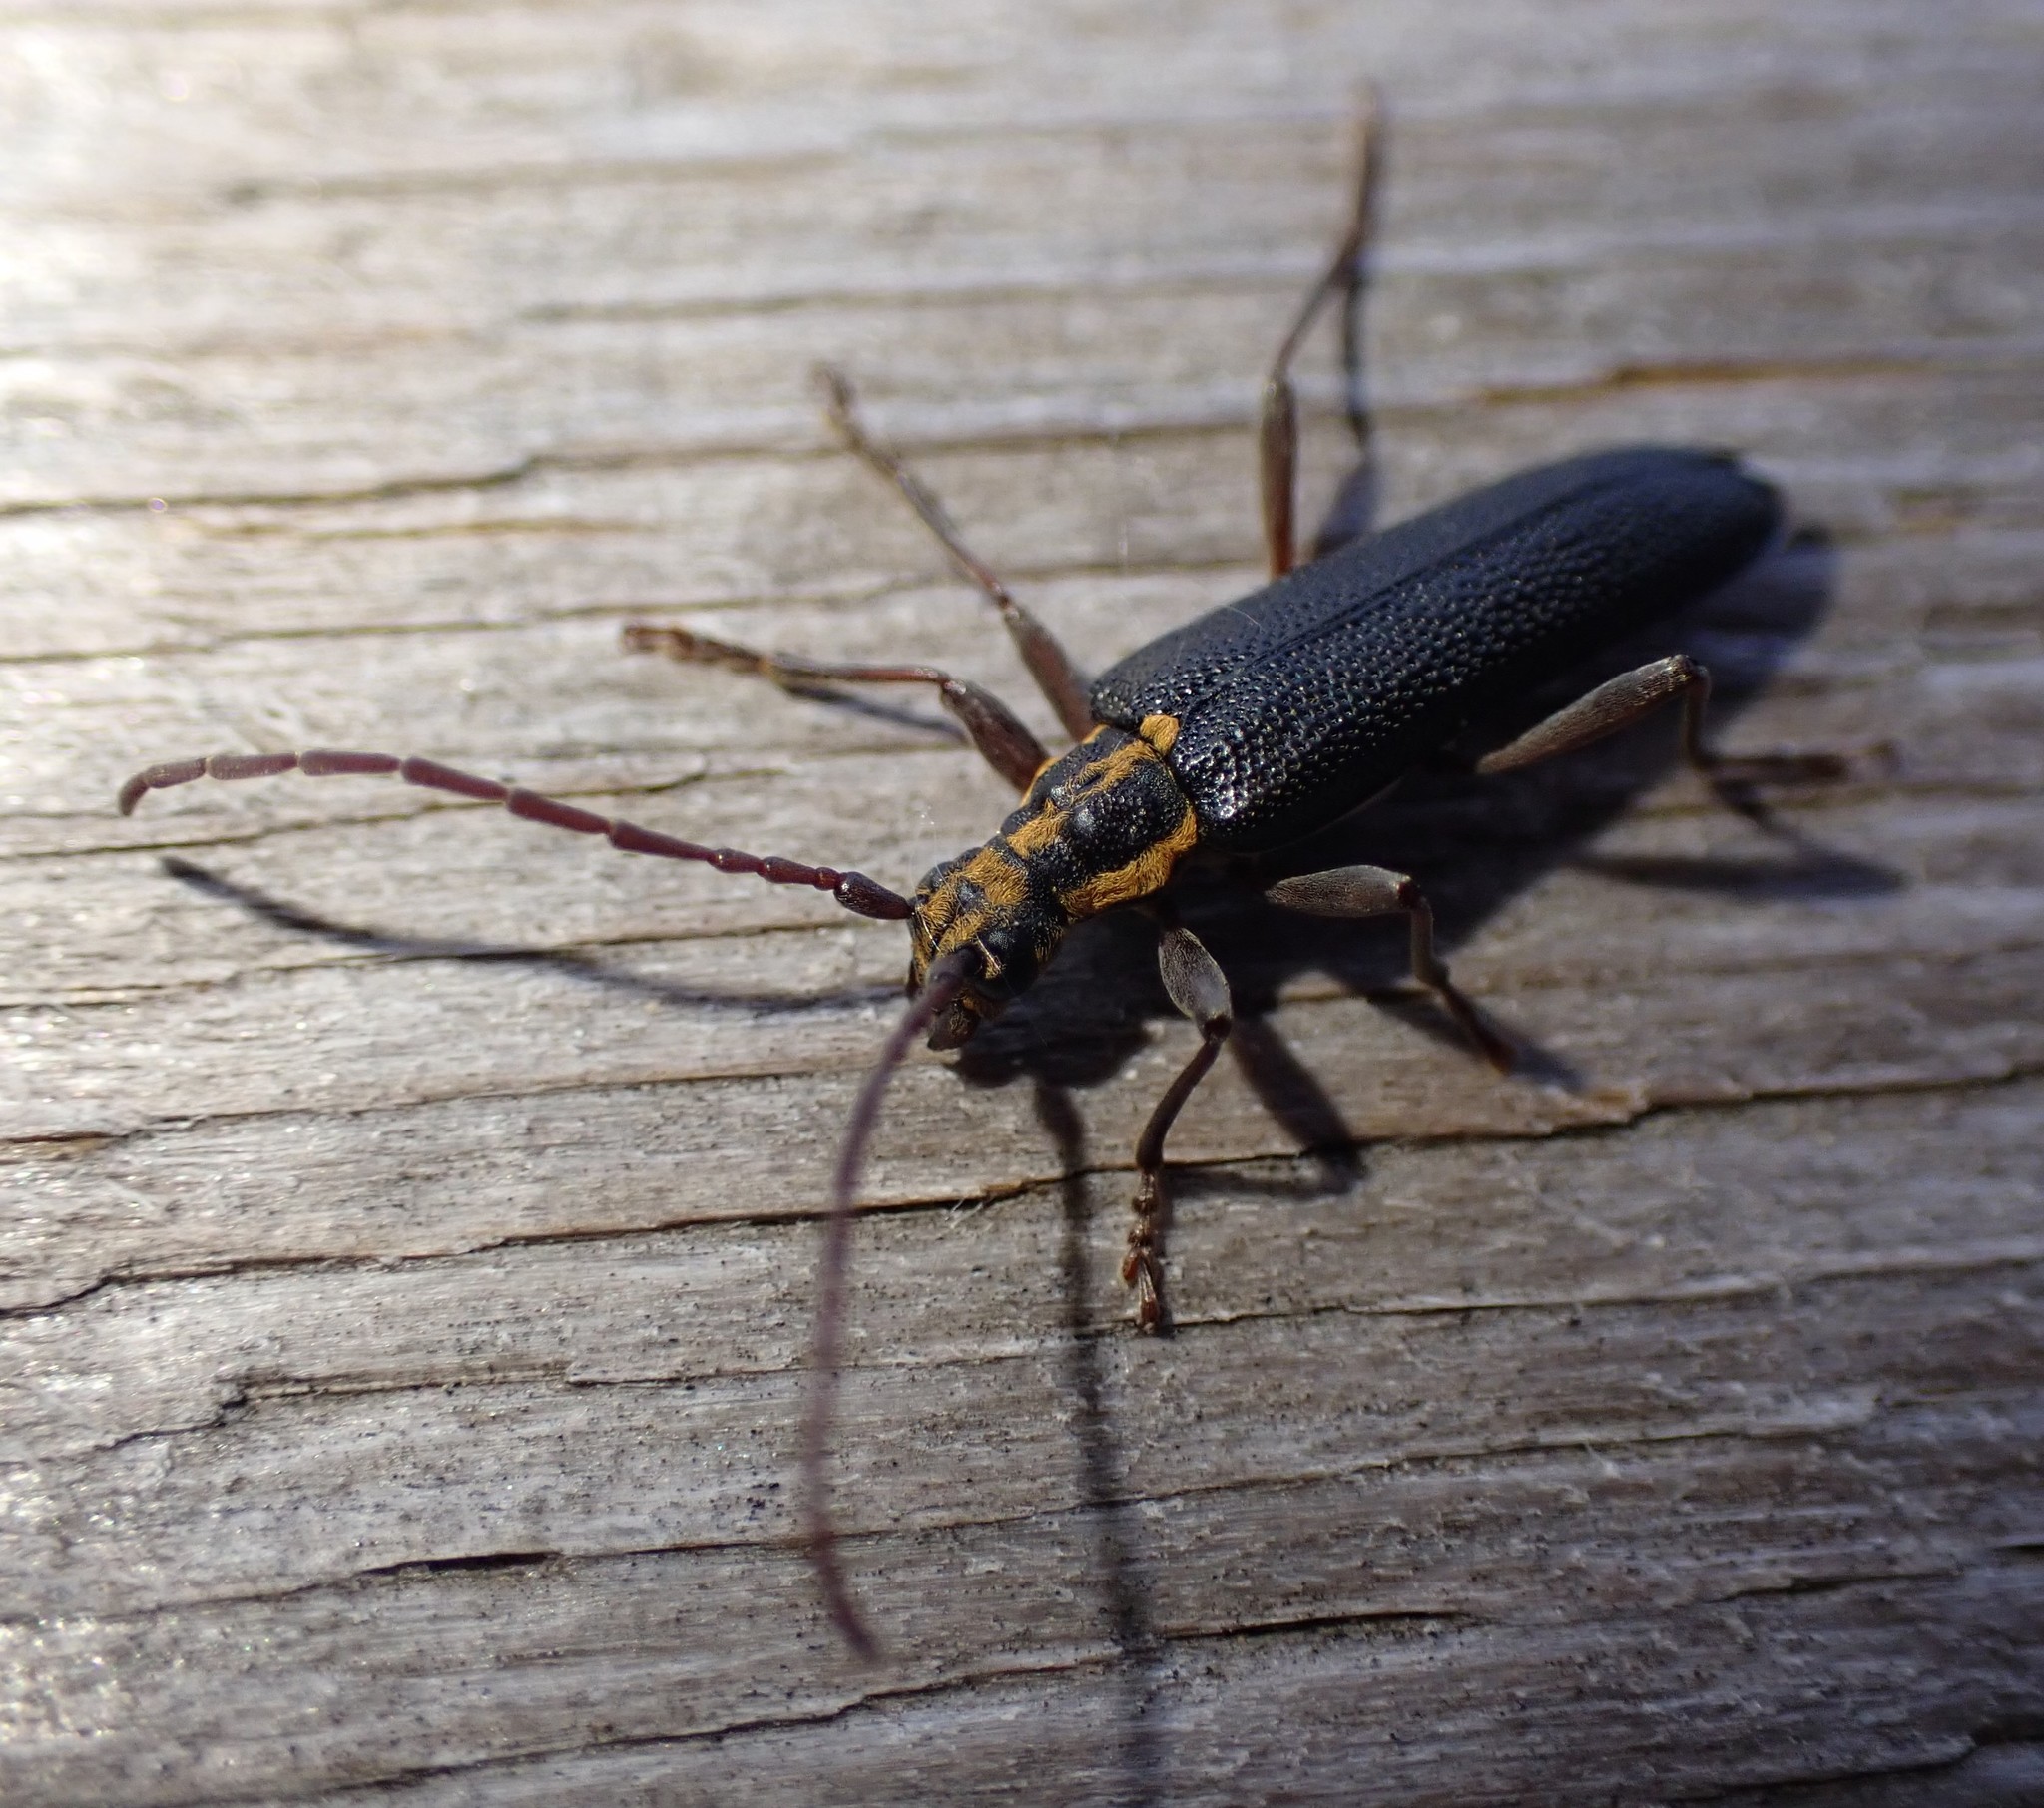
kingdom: Animalia
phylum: Arthropoda
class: Insecta
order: Coleoptera
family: Cerambycidae
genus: Enoploderes
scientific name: Enoploderes vitticollis
